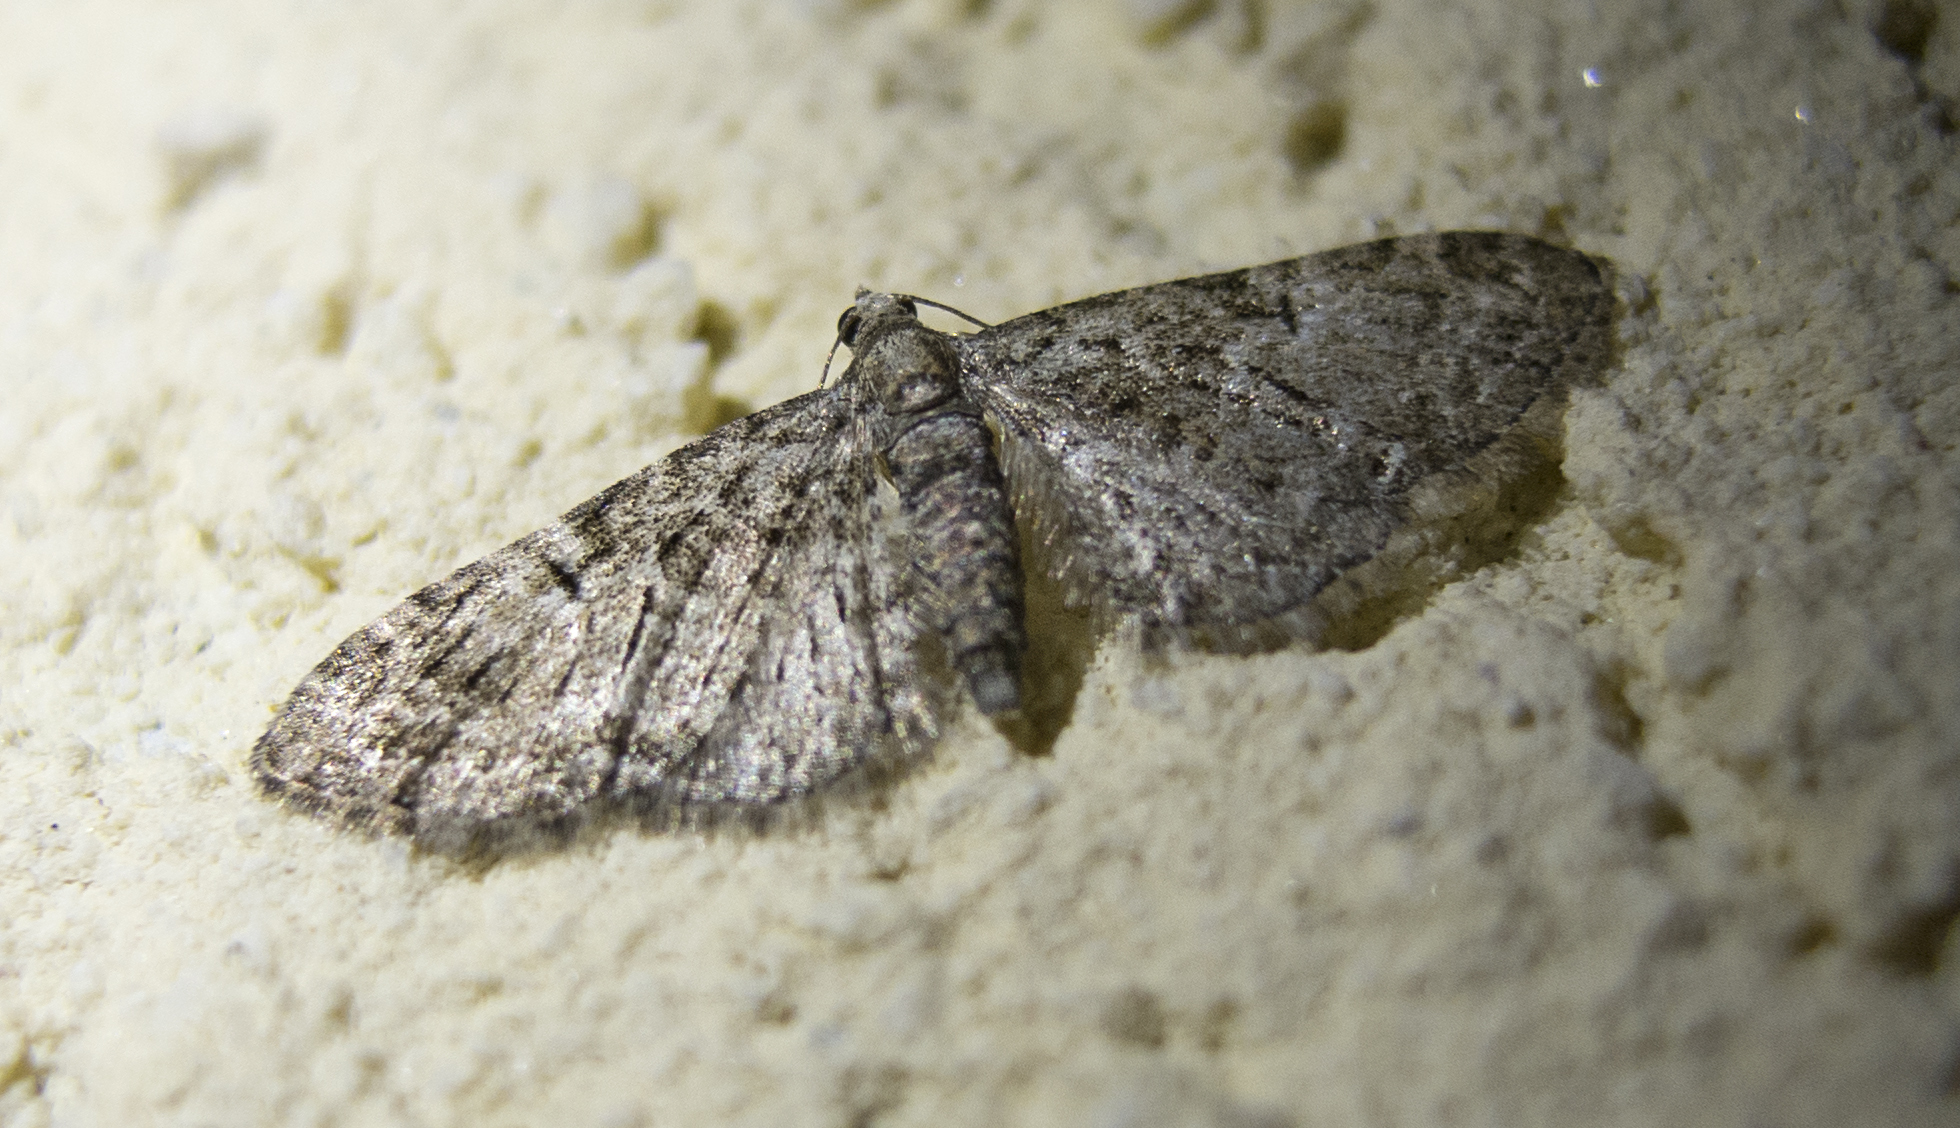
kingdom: Animalia
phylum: Arthropoda
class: Insecta
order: Lepidoptera
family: Geometridae
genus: Eupithecia
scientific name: Eupithecia abbreviata
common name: Brindled pug
